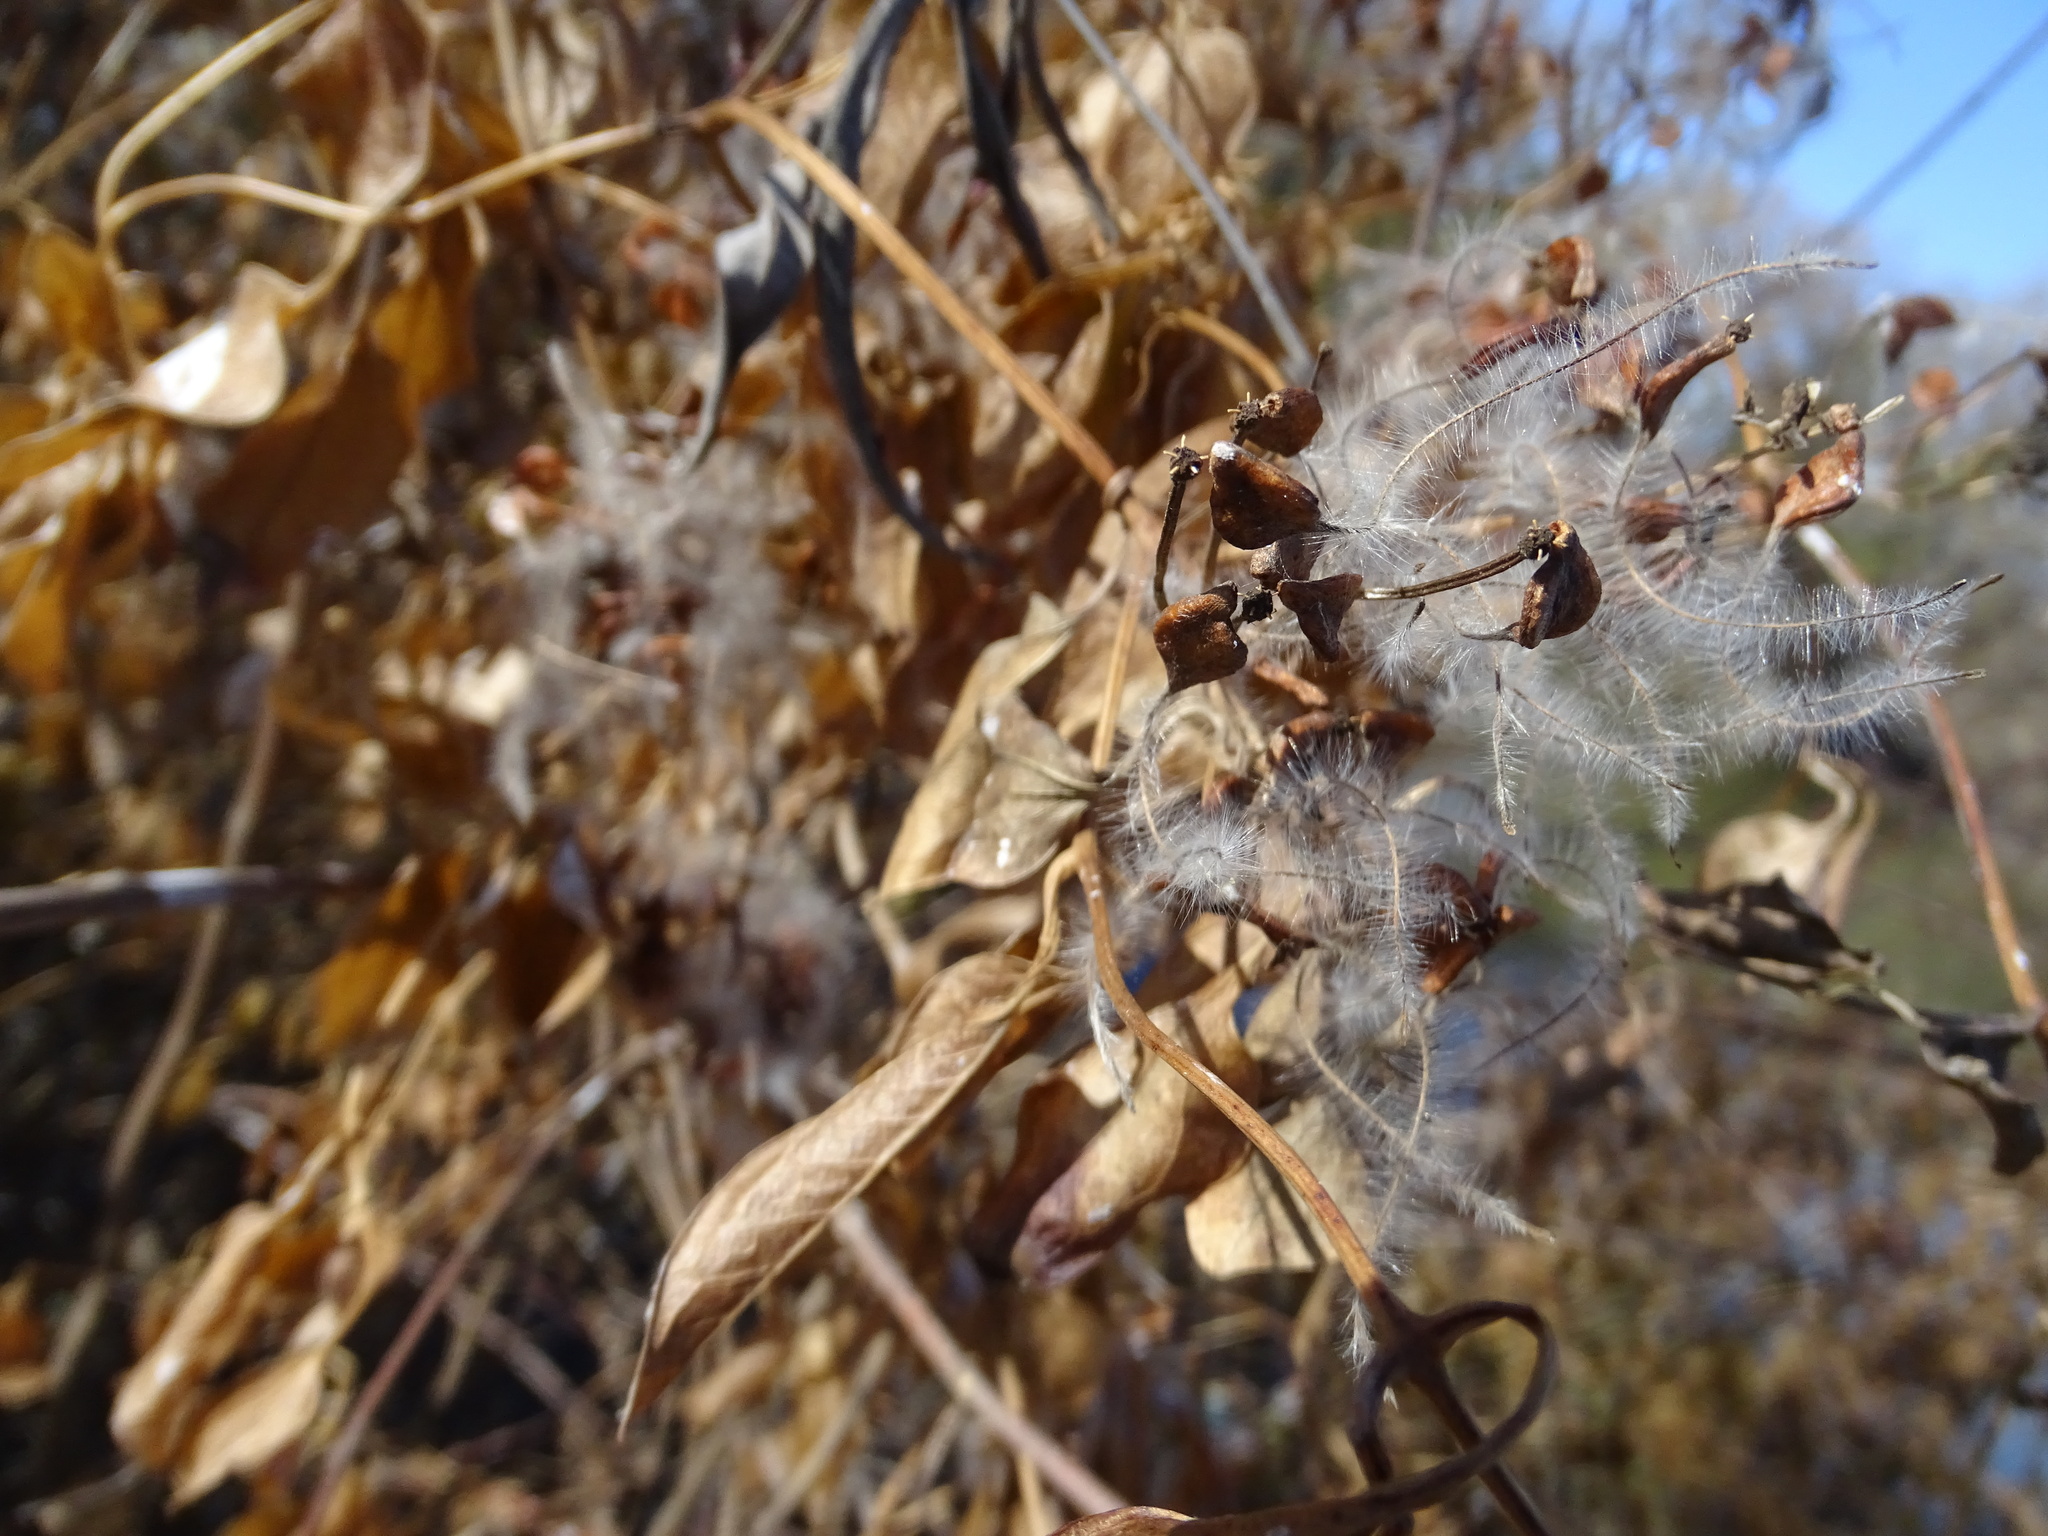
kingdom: Plantae
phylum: Tracheophyta
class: Magnoliopsida
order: Ranunculales
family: Ranunculaceae
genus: Clematis
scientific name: Clematis terniflora
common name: Sweet autumn clematis
